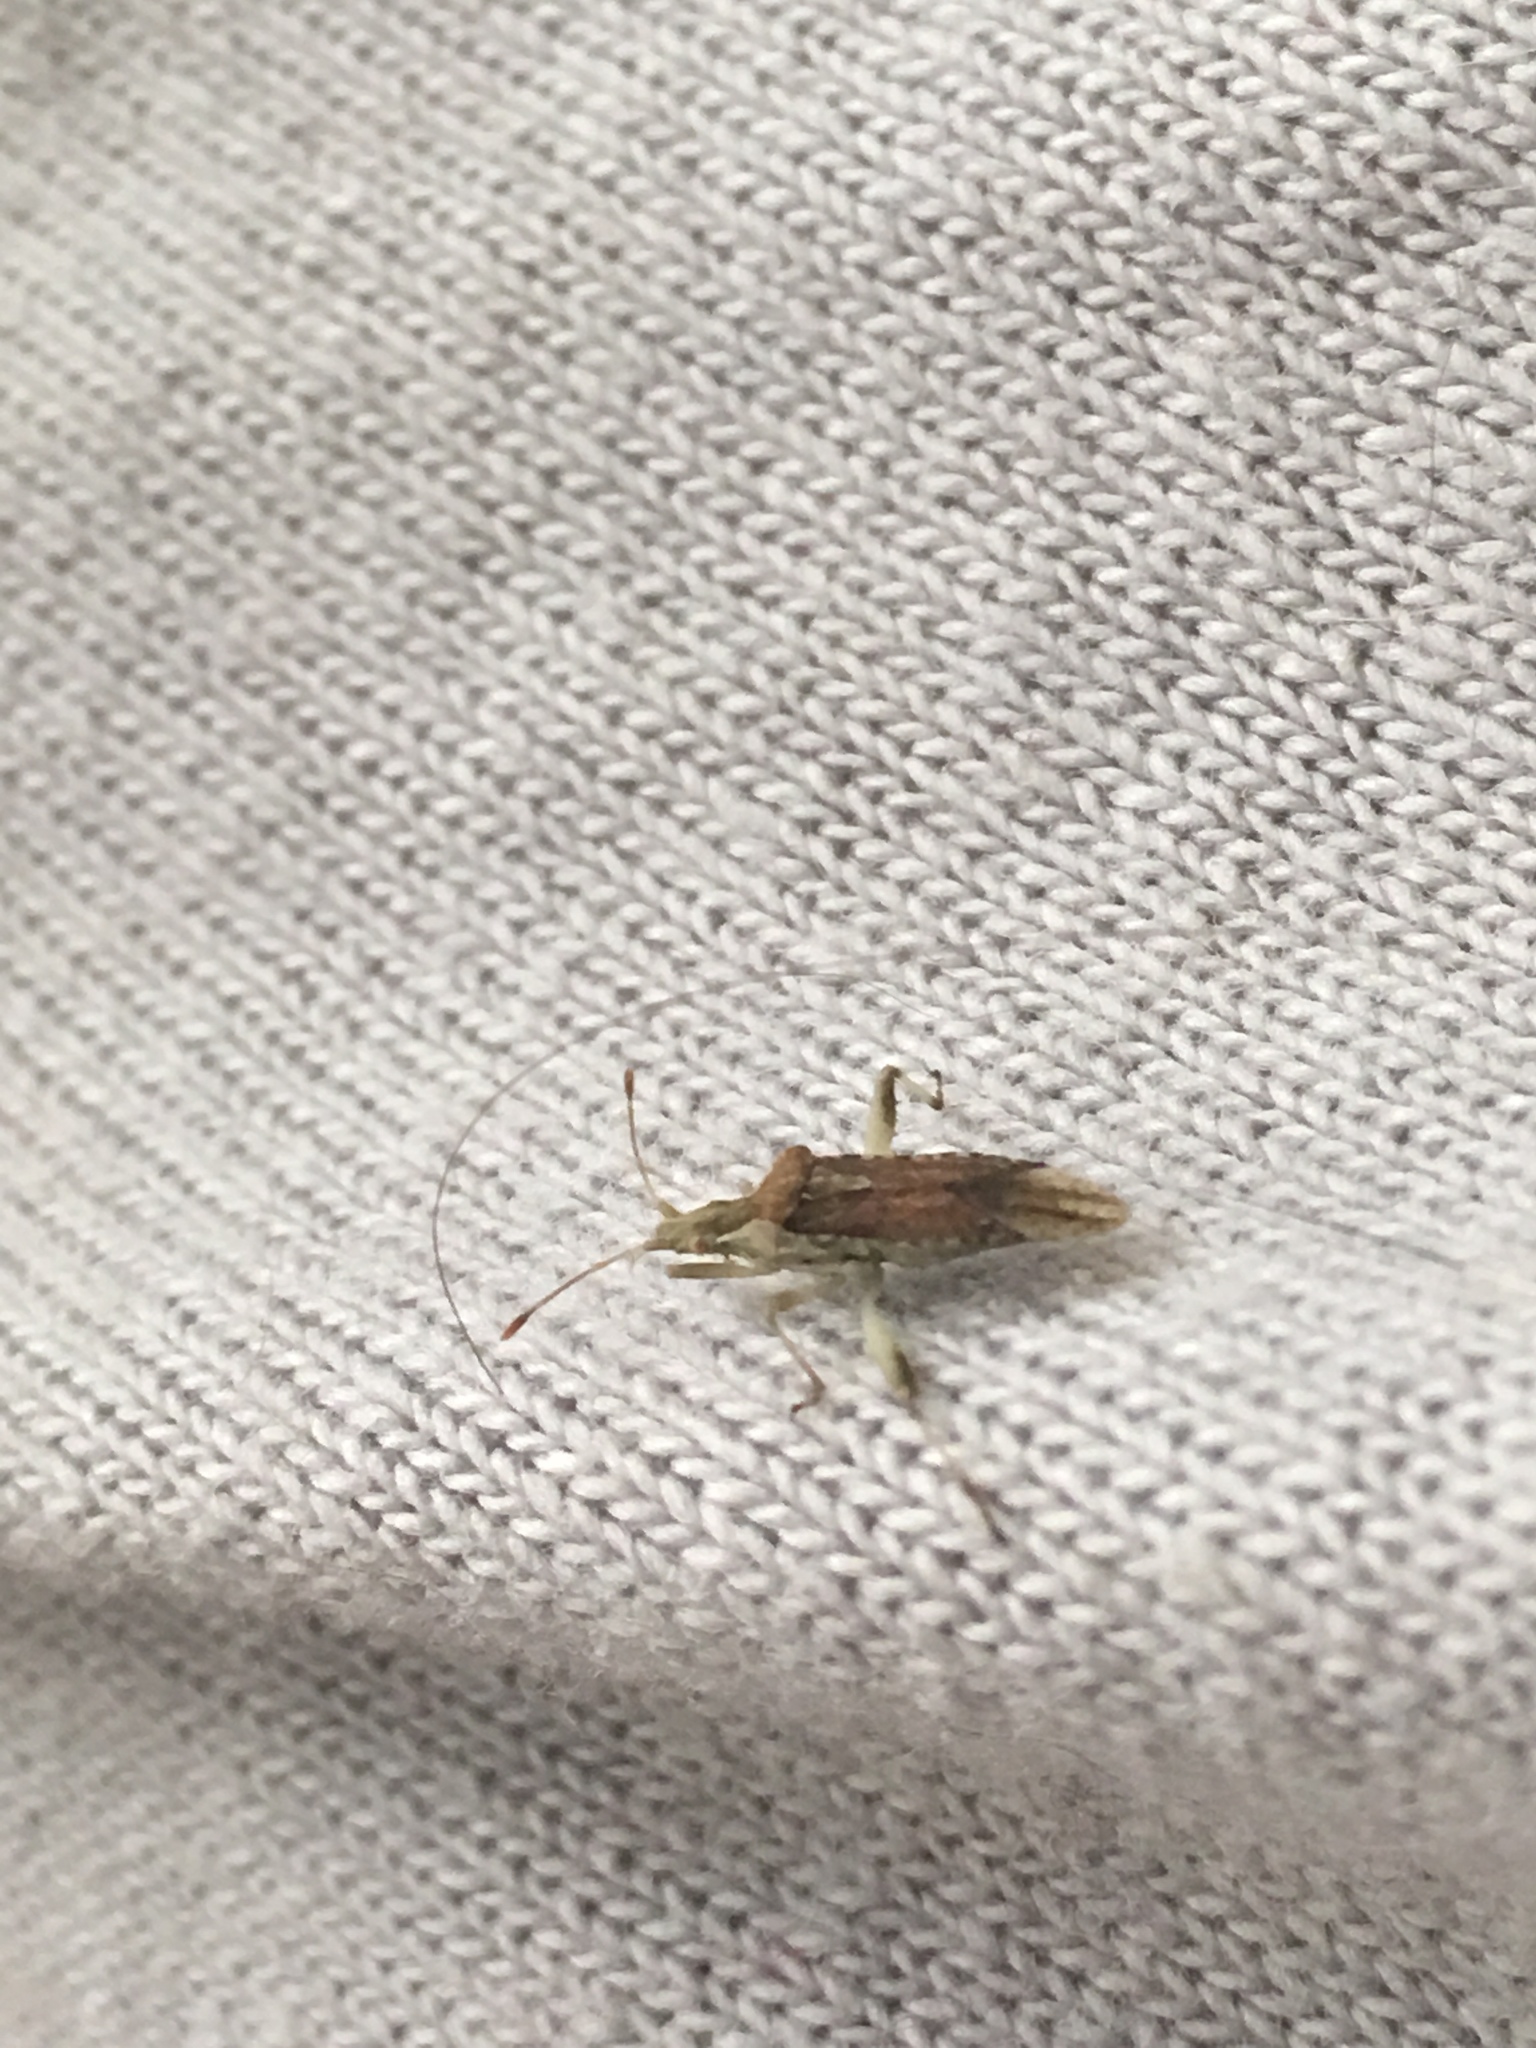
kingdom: Animalia
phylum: Arthropoda
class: Insecta
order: Hemiptera
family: Rhopalidae
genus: Harmostes
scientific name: Harmostes reflexulus
